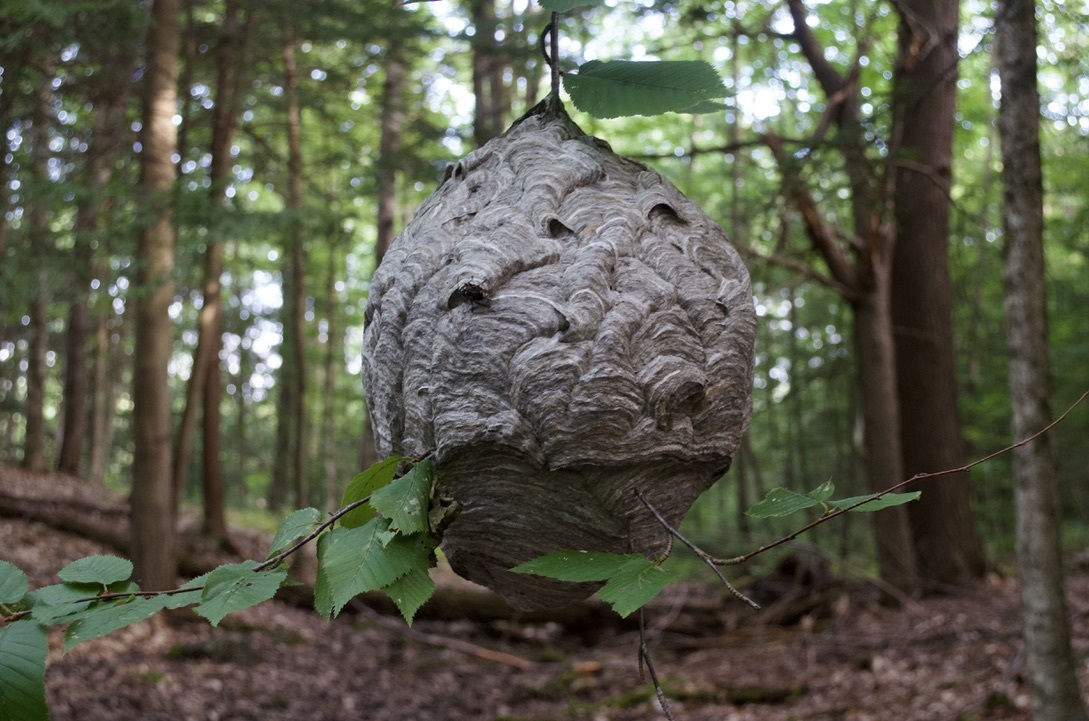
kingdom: Animalia
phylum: Arthropoda
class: Insecta
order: Hymenoptera
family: Vespidae
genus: Dolichovespula
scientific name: Dolichovespula maculata
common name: Bald-faced hornet
